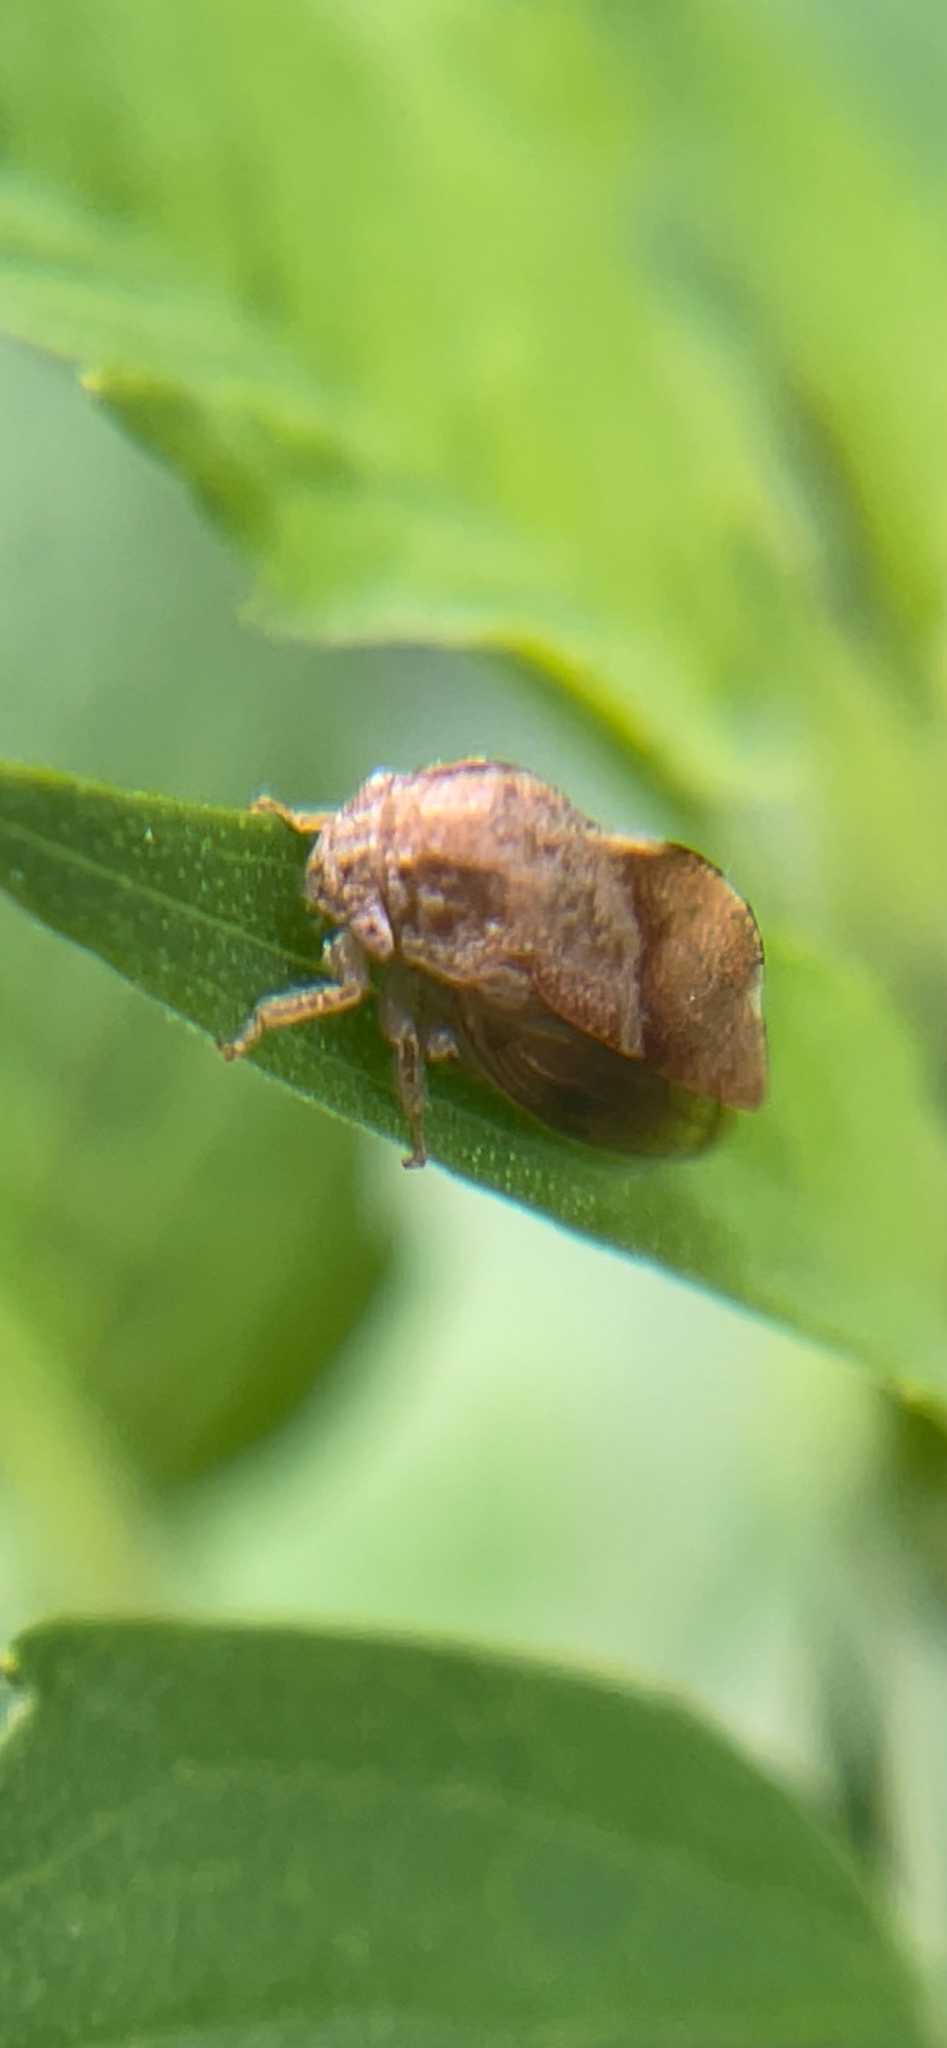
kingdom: Animalia
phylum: Arthropoda
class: Insecta
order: Hemiptera
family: Membracidae
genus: Cyrtolobus
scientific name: Cyrtolobus fuliginosa
